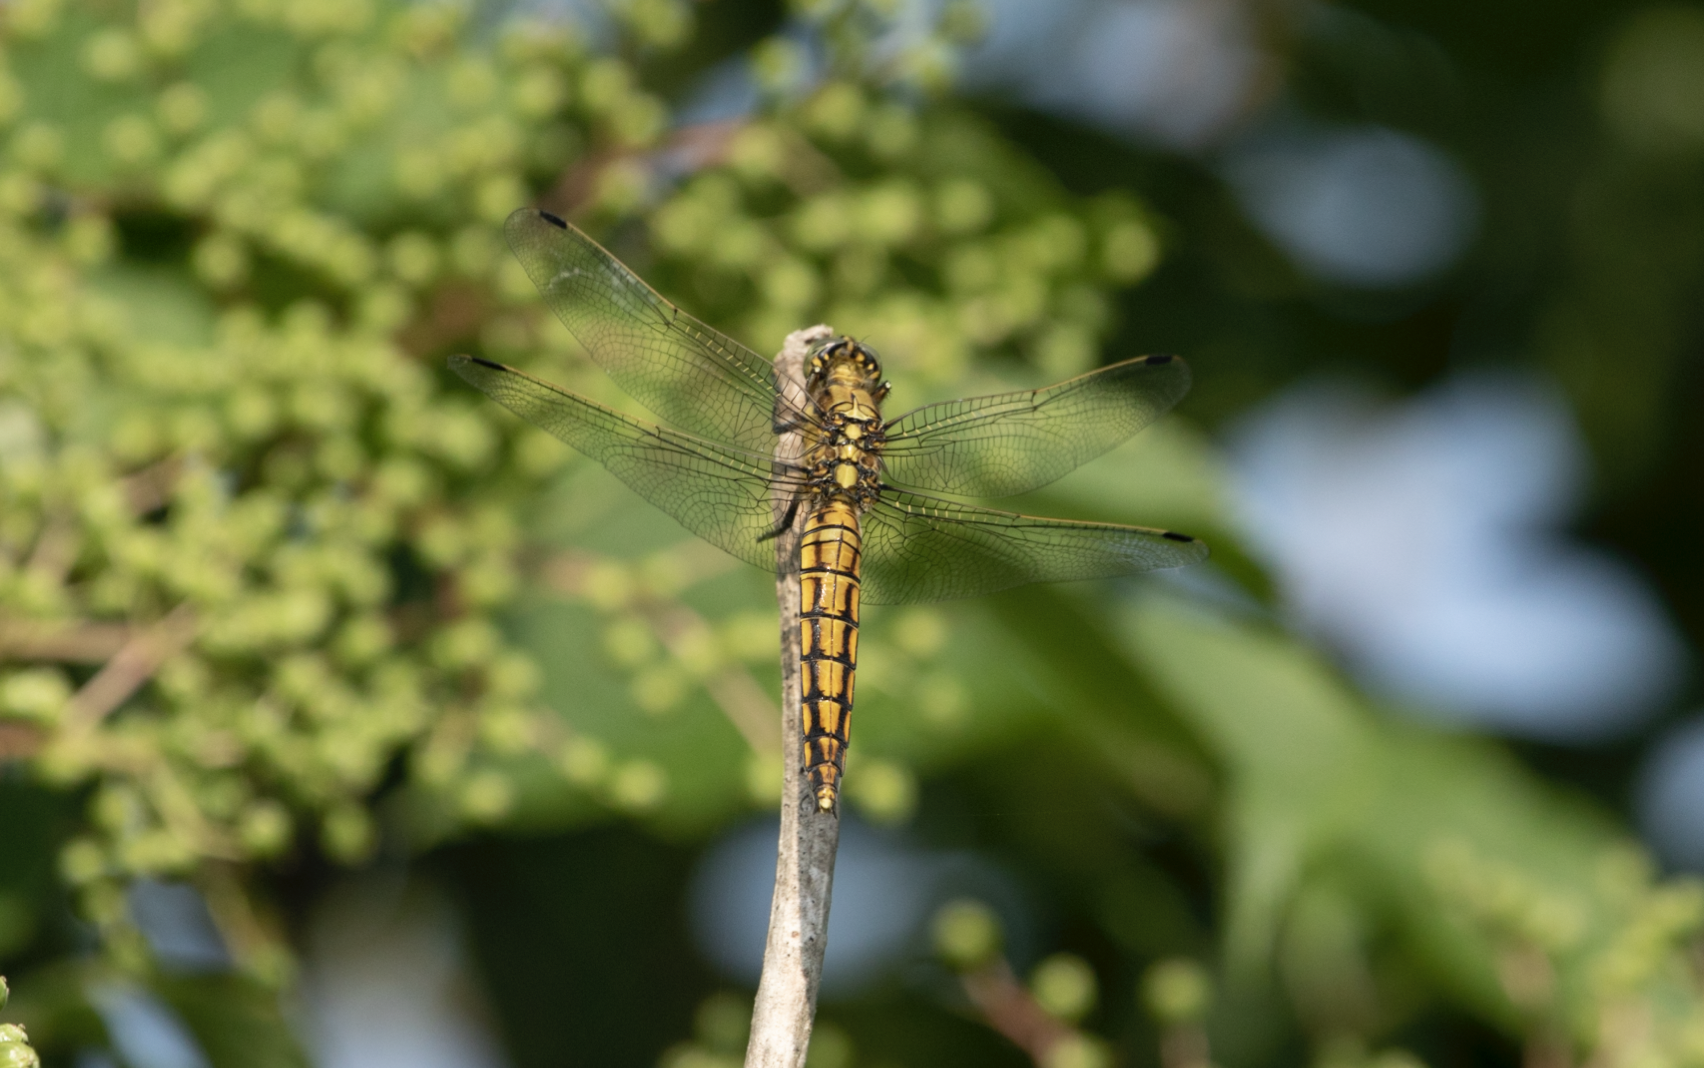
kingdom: Animalia
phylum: Arthropoda
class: Insecta
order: Odonata
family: Libellulidae
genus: Orthetrum
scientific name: Orthetrum cancellatum
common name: Black-tailed skimmer
